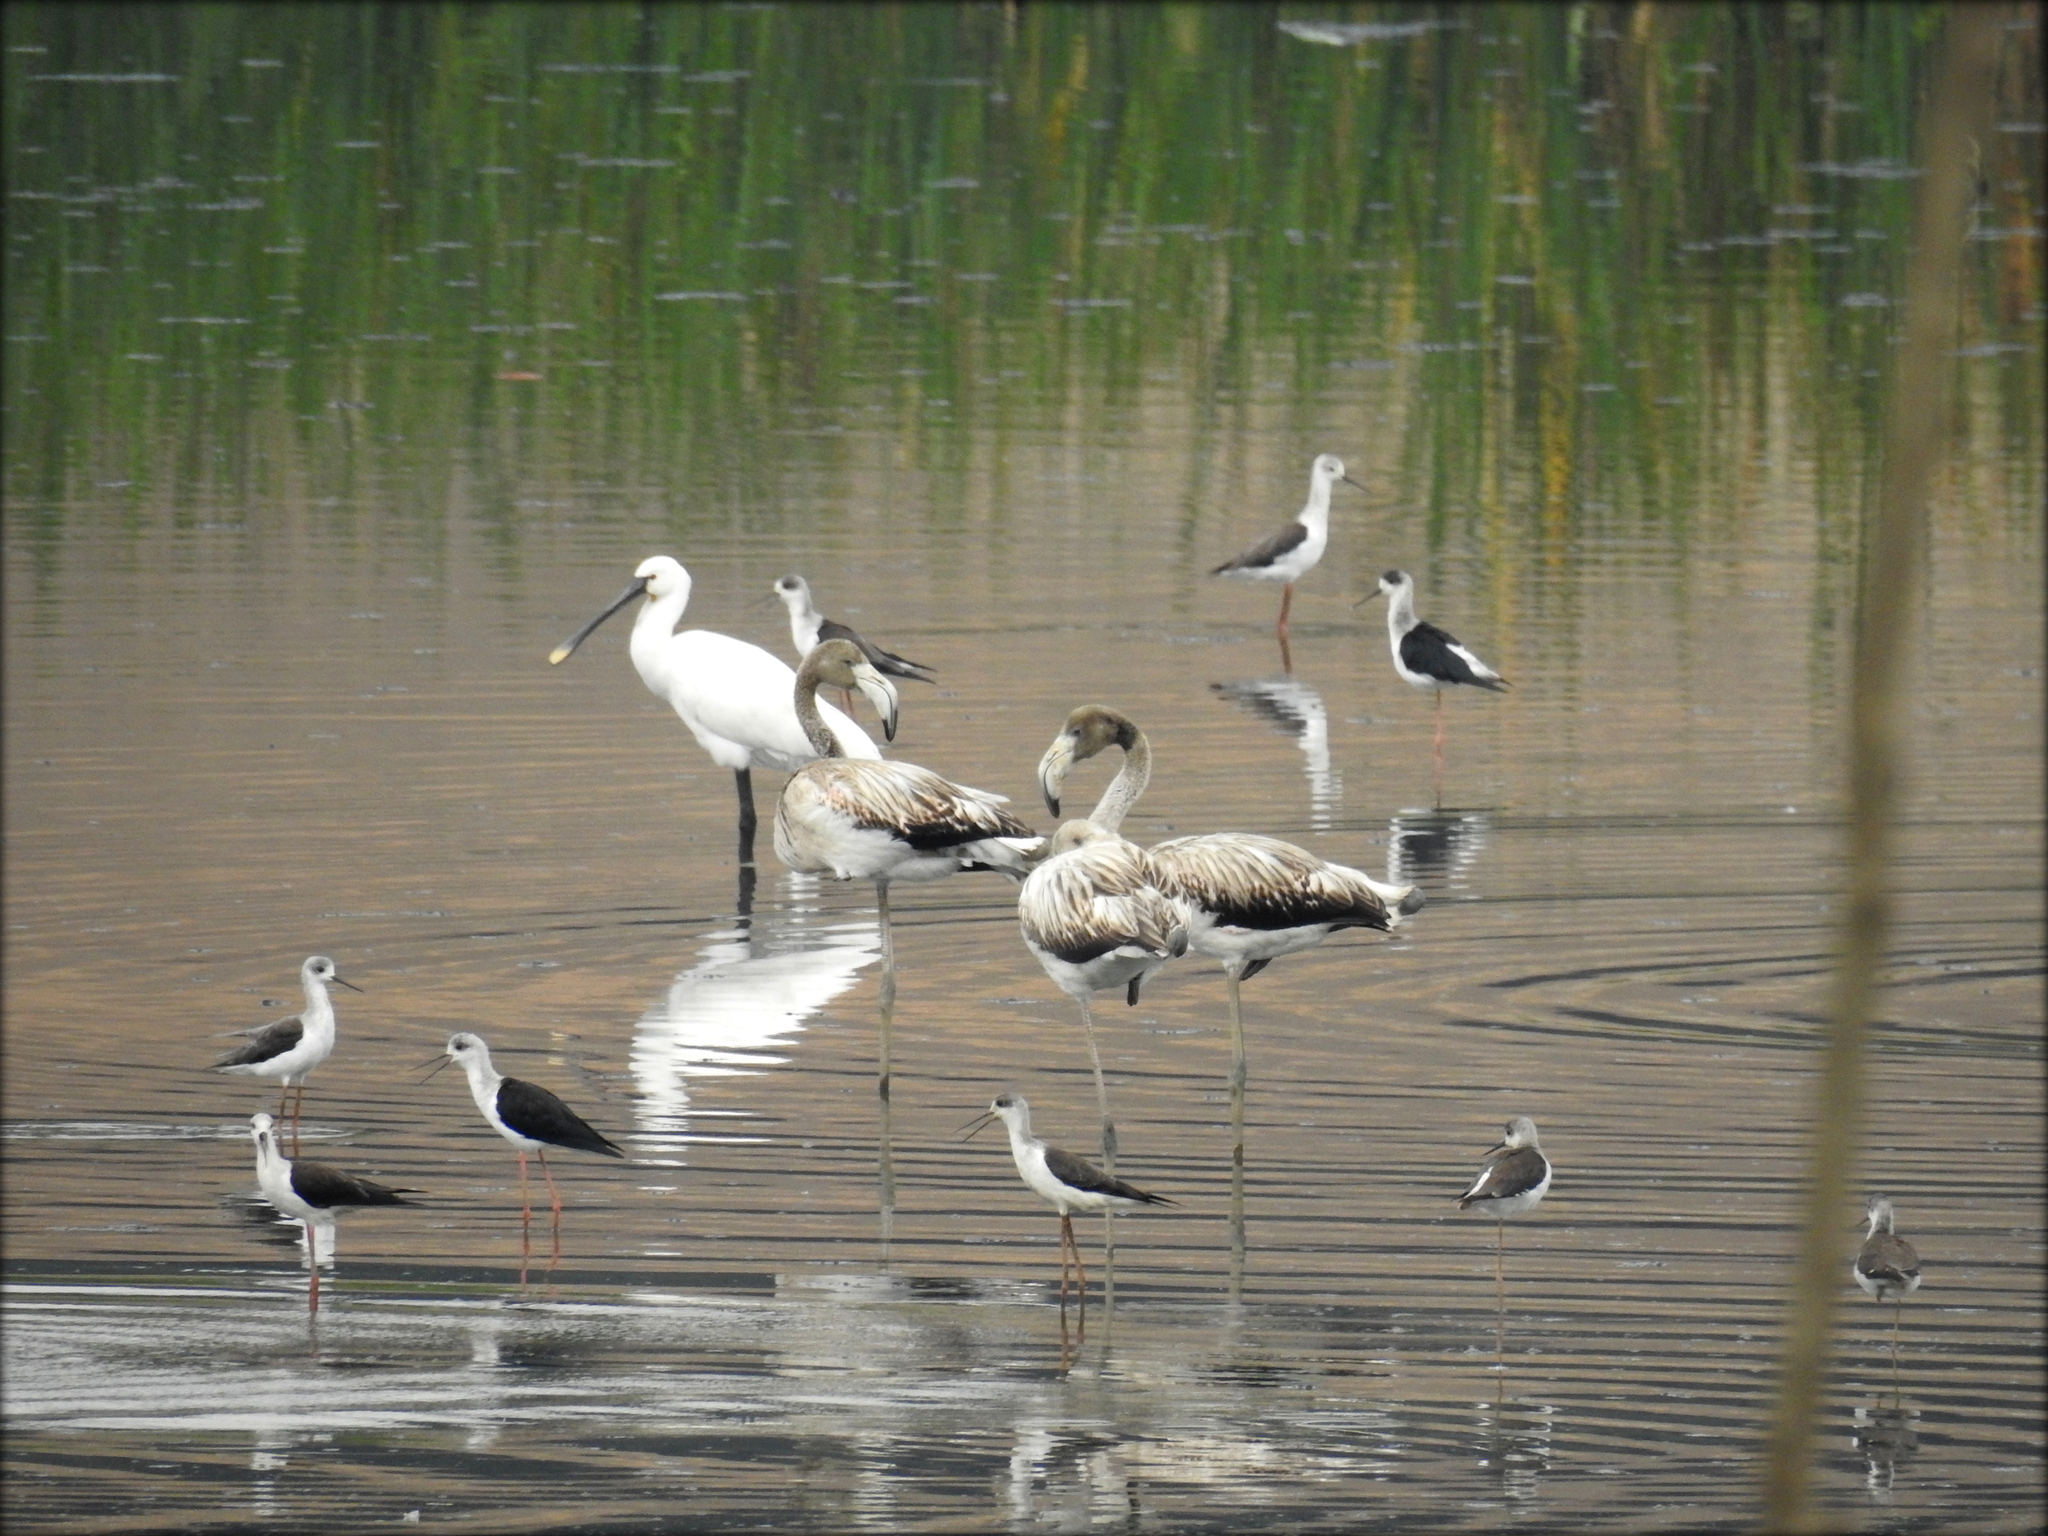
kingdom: Animalia
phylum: Chordata
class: Aves
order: Phoenicopteriformes
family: Phoenicopteridae
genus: Phoenicopterus
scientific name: Phoenicopterus roseus
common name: Greater flamingo
